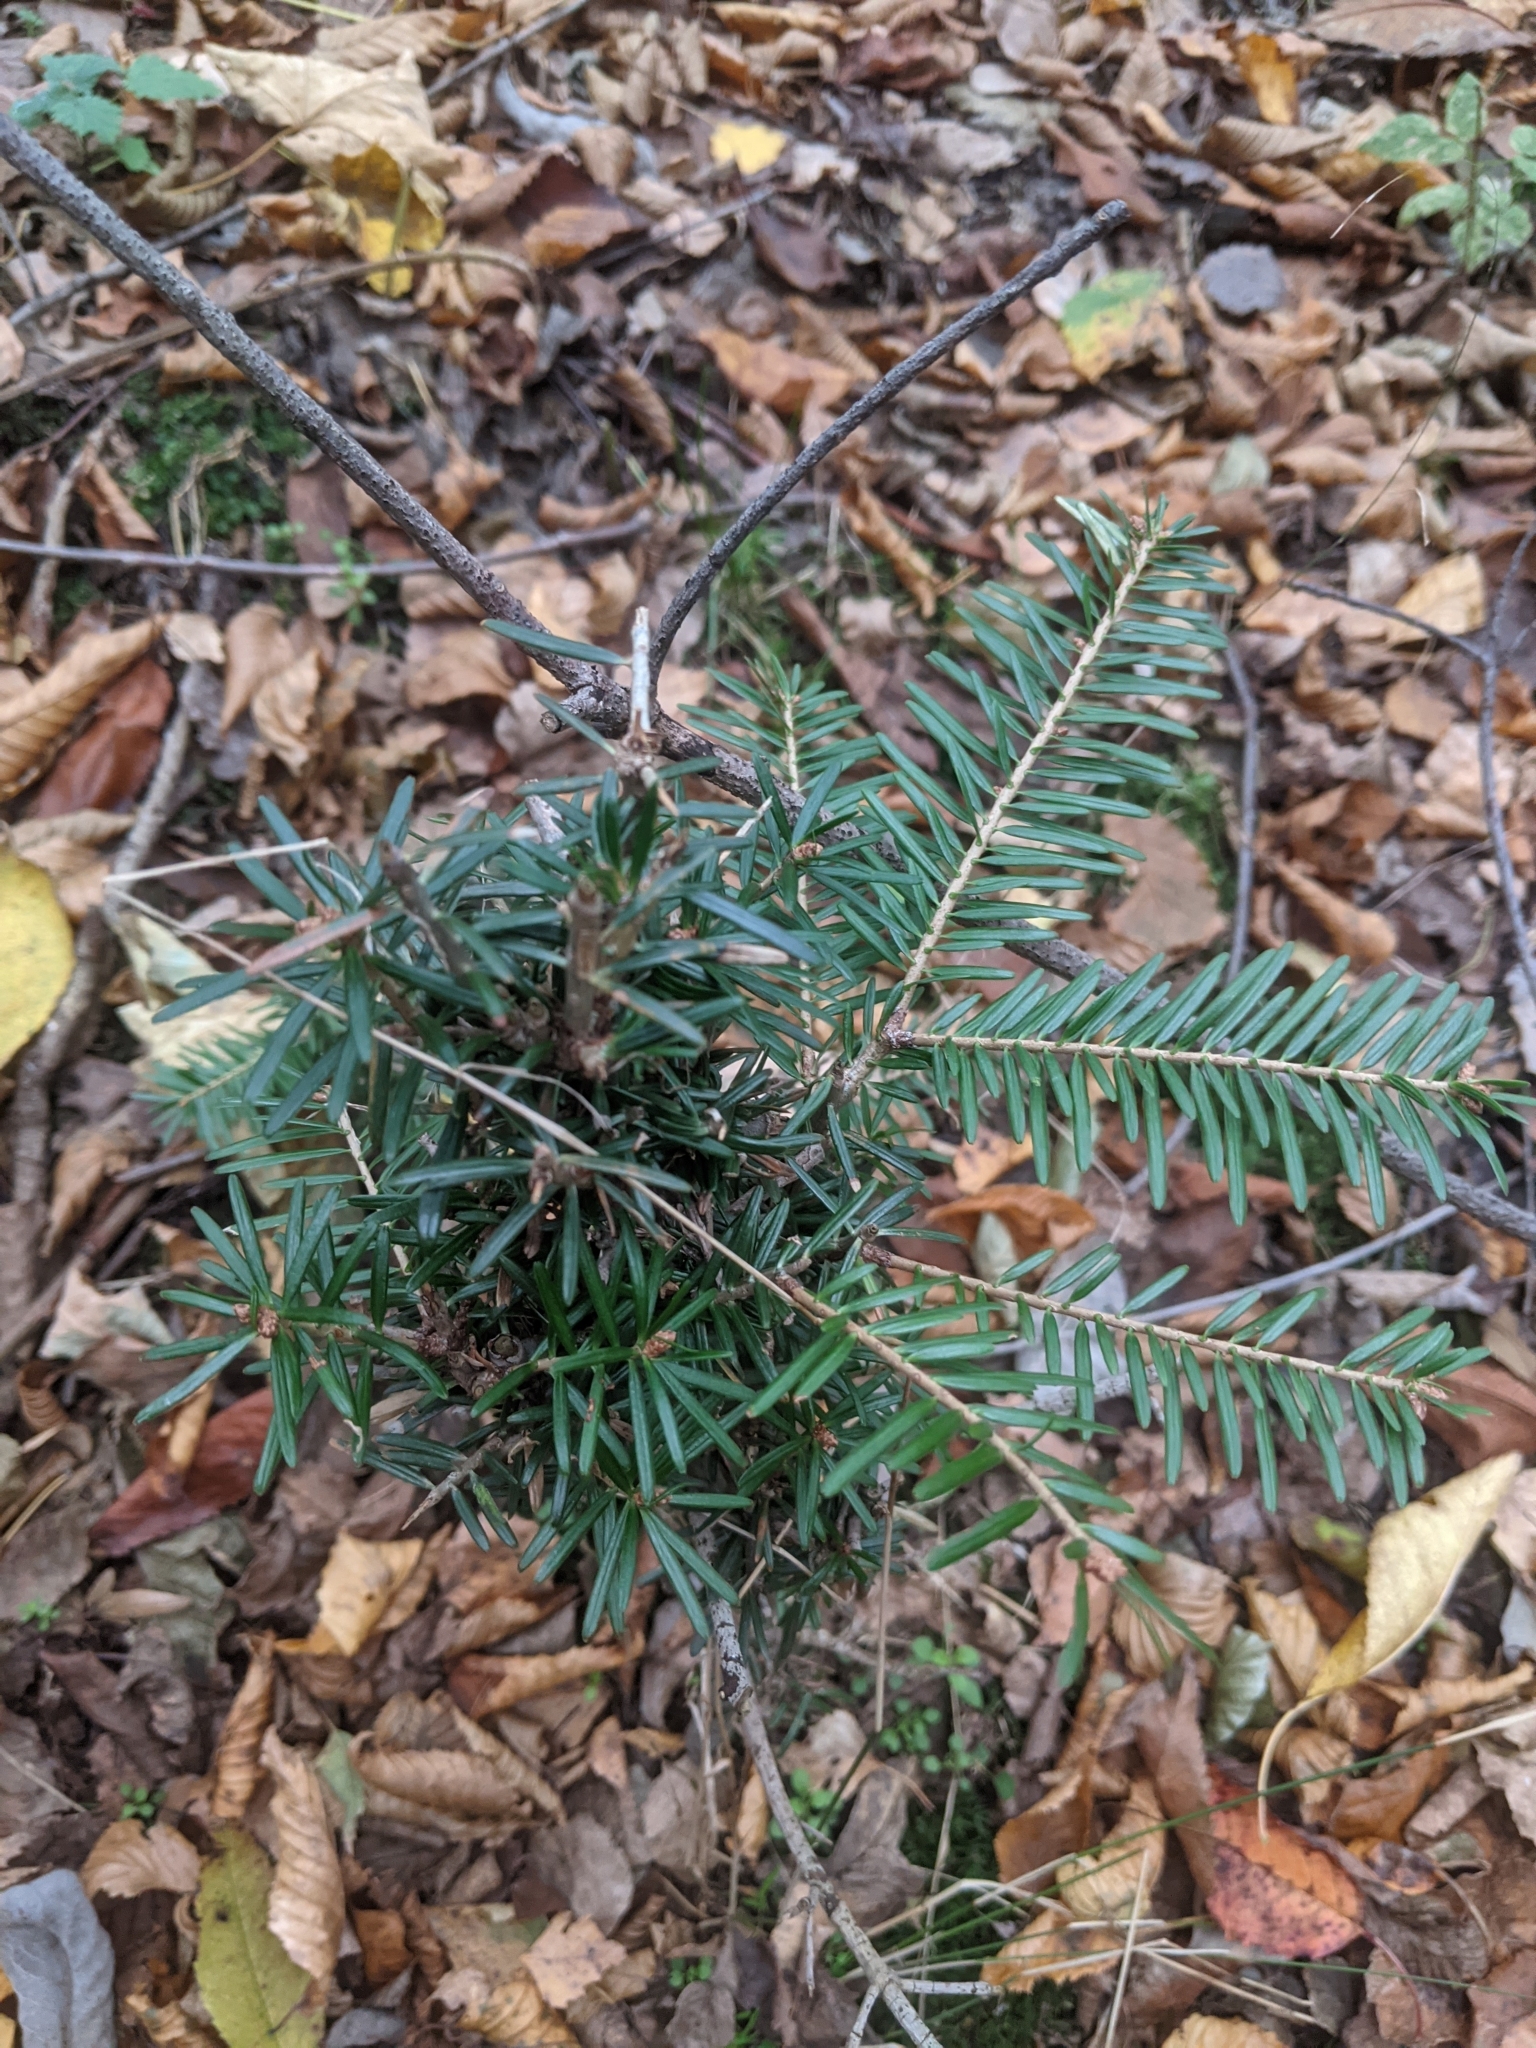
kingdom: Plantae
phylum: Tracheophyta
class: Pinopsida
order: Pinales
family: Pinaceae
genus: Abies
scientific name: Abies alba
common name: Silver fir
